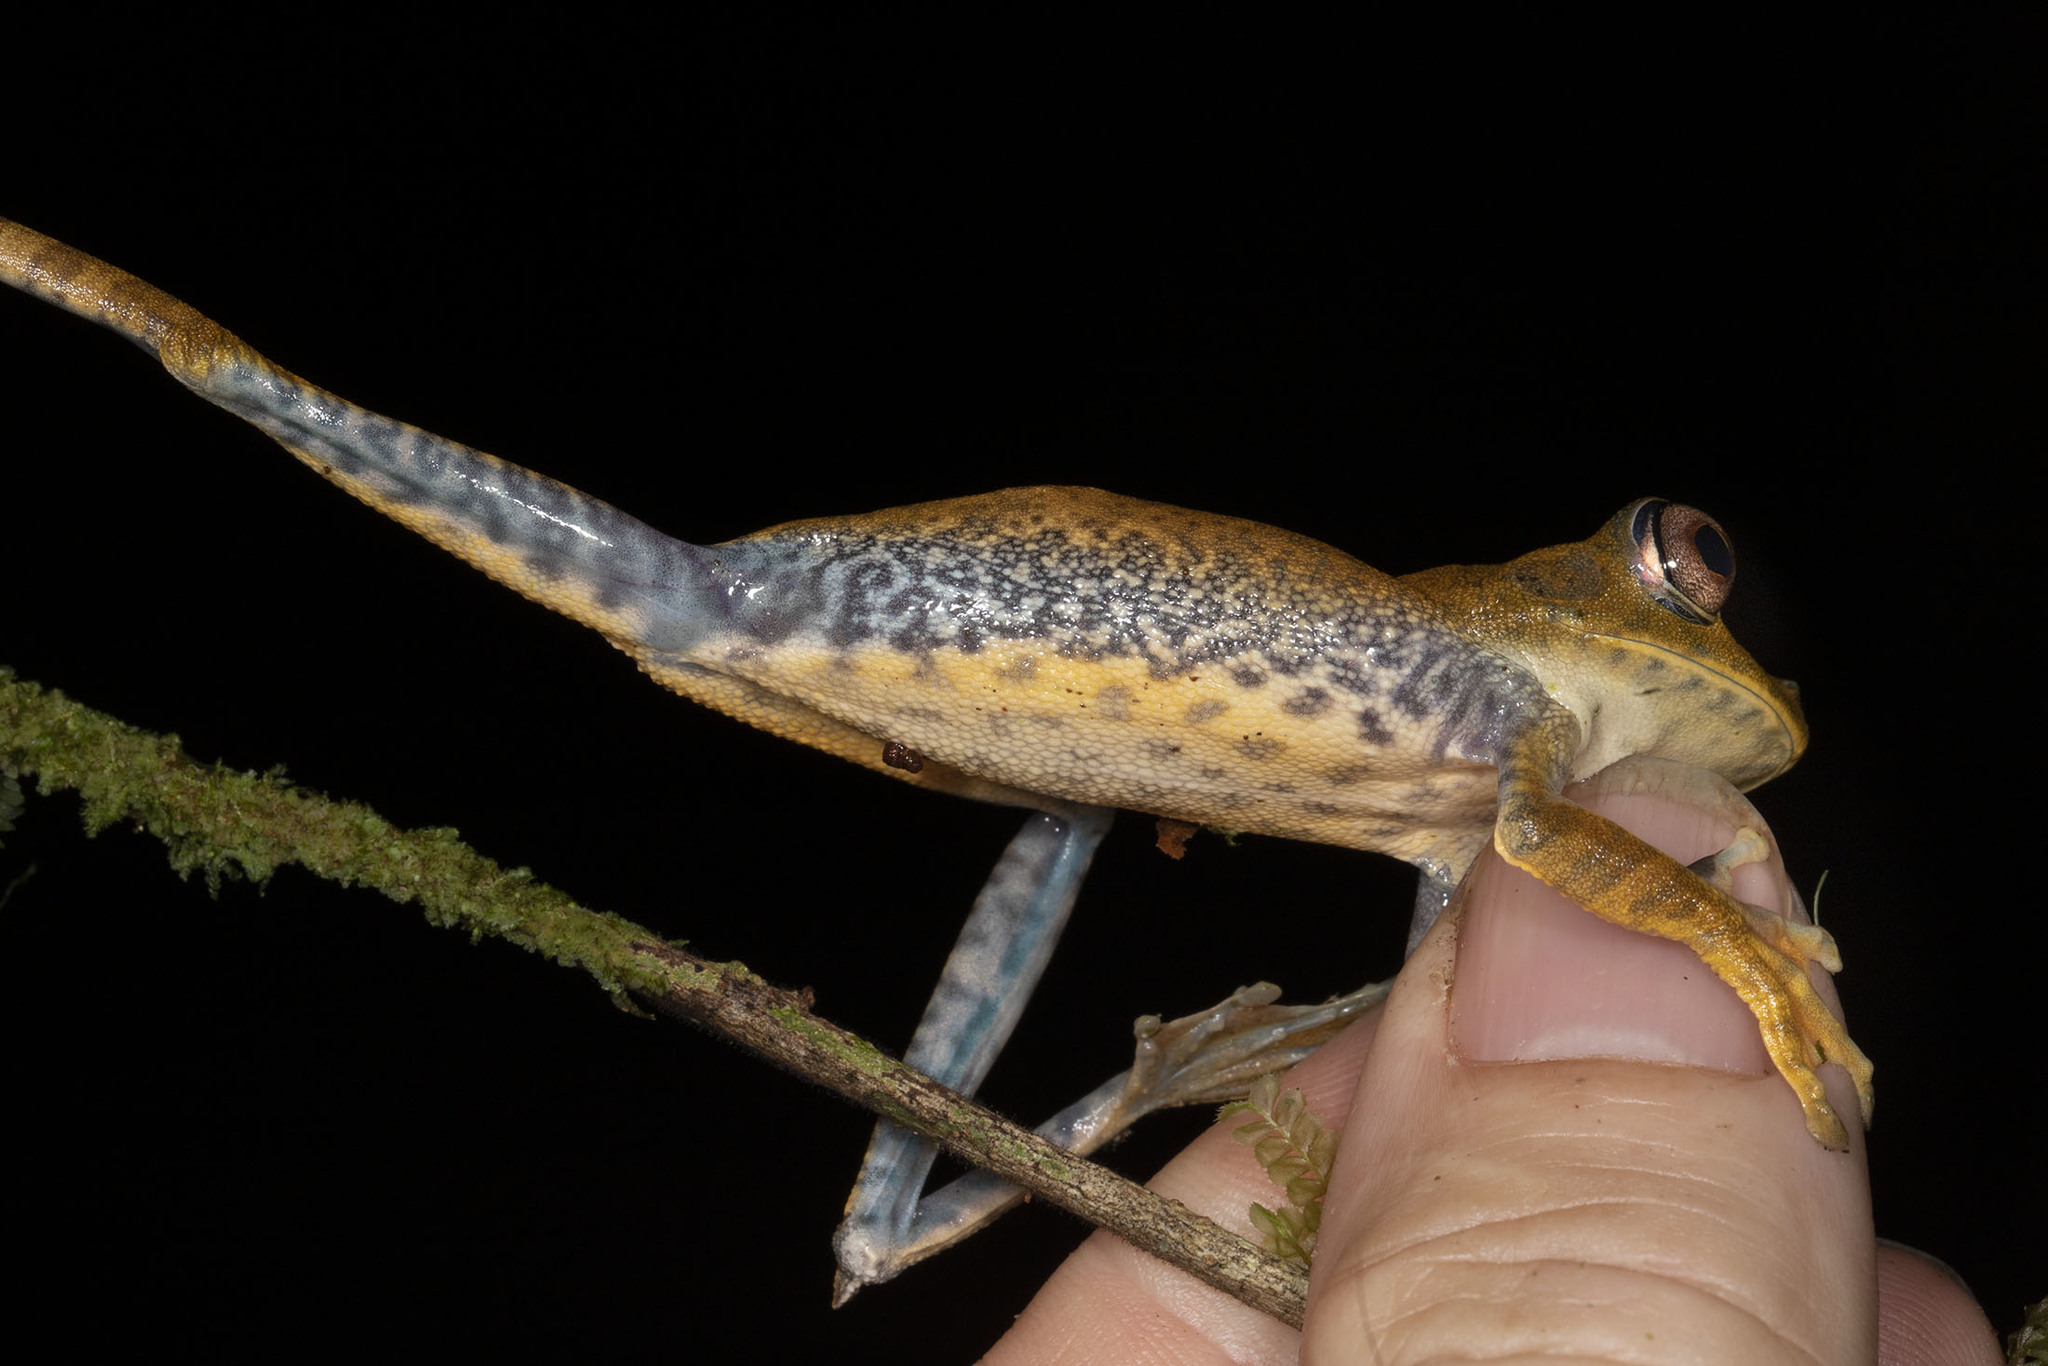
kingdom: Animalia
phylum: Chordata
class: Amphibia
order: Anura
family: Hylidae
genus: Boana
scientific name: Boana appendiculata
